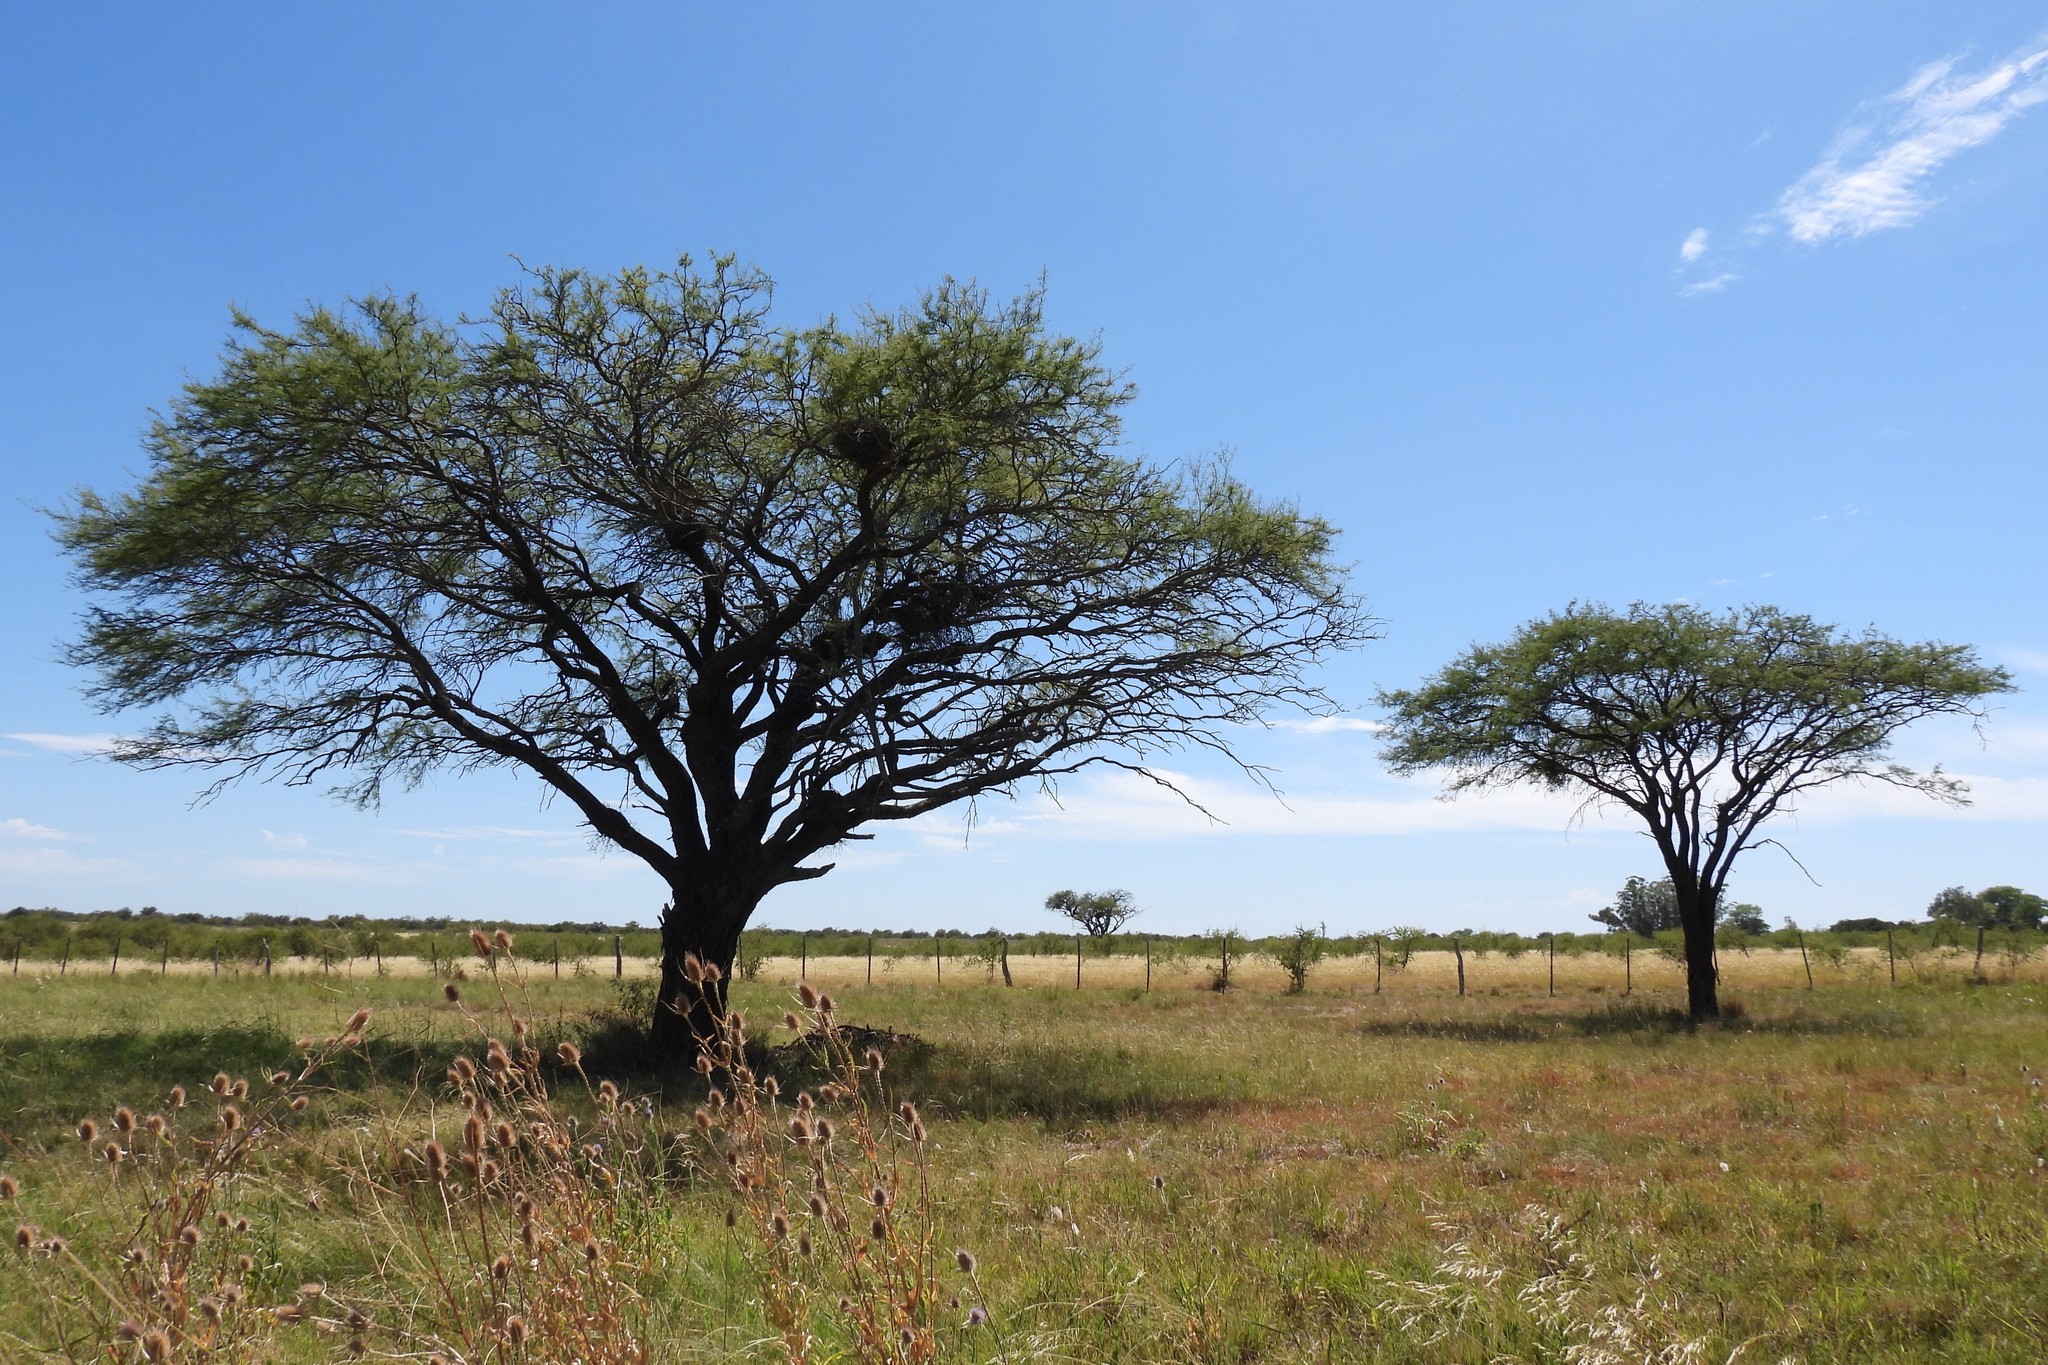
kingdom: Plantae
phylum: Tracheophyta
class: Magnoliopsida
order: Fabales
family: Fabaceae
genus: Prosopis
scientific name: Prosopis affinis
